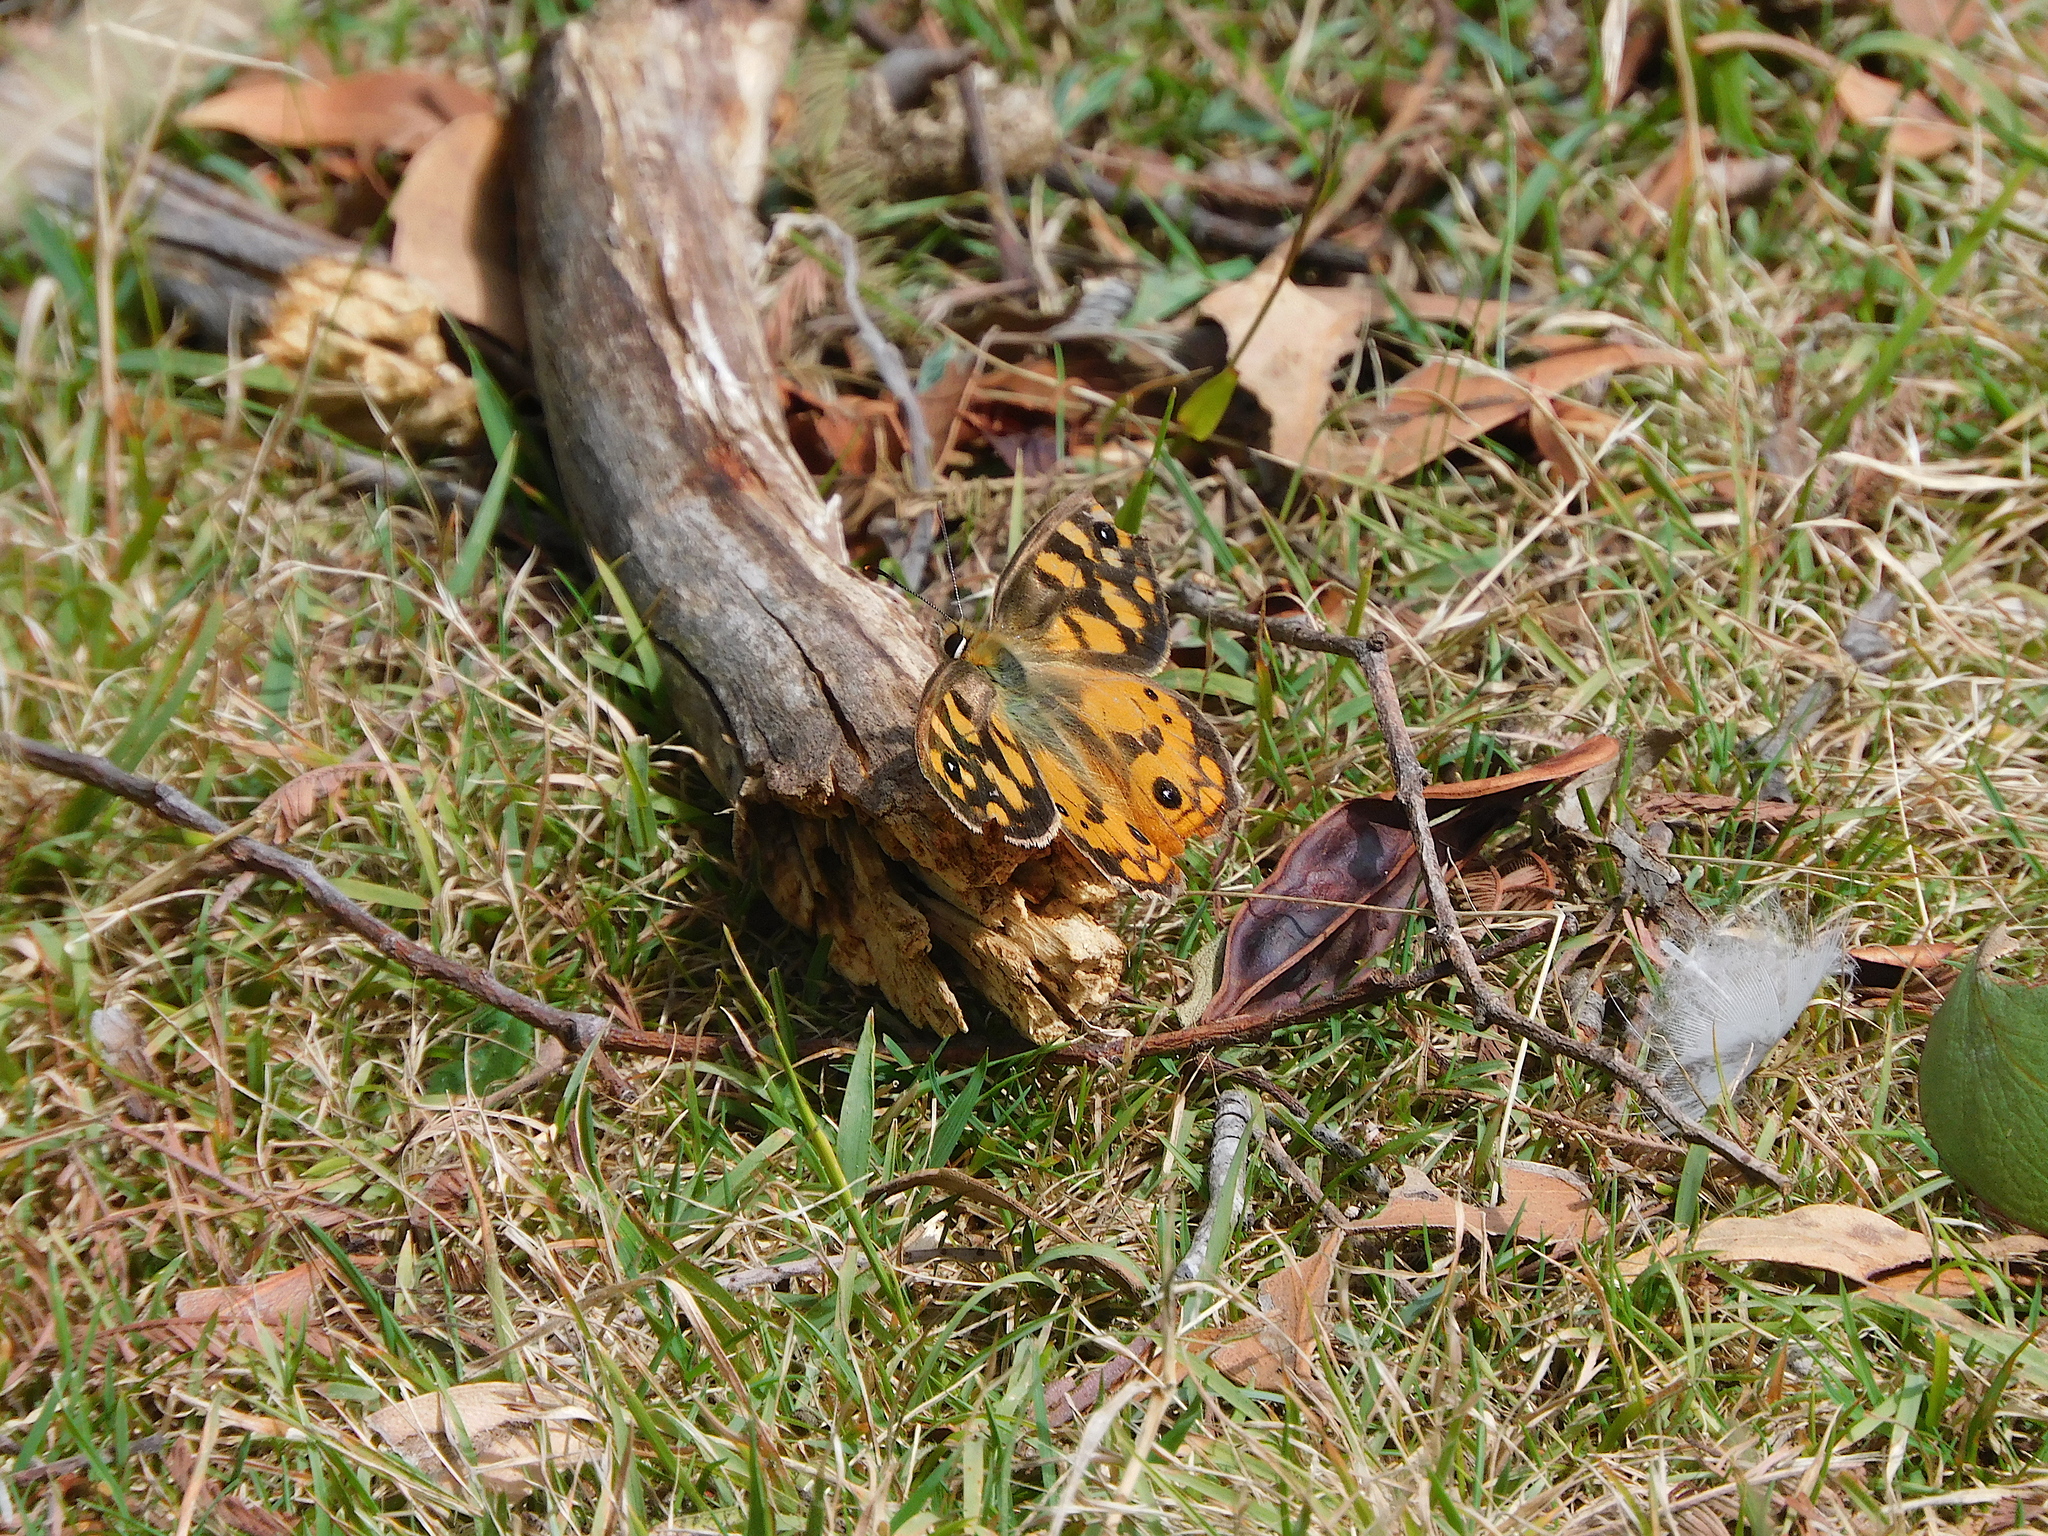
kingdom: Animalia
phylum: Arthropoda
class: Insecta
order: Lepidoptera
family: Nymphalidae
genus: Heteronympha
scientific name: Heteronympha penelope
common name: Shouldered brown
